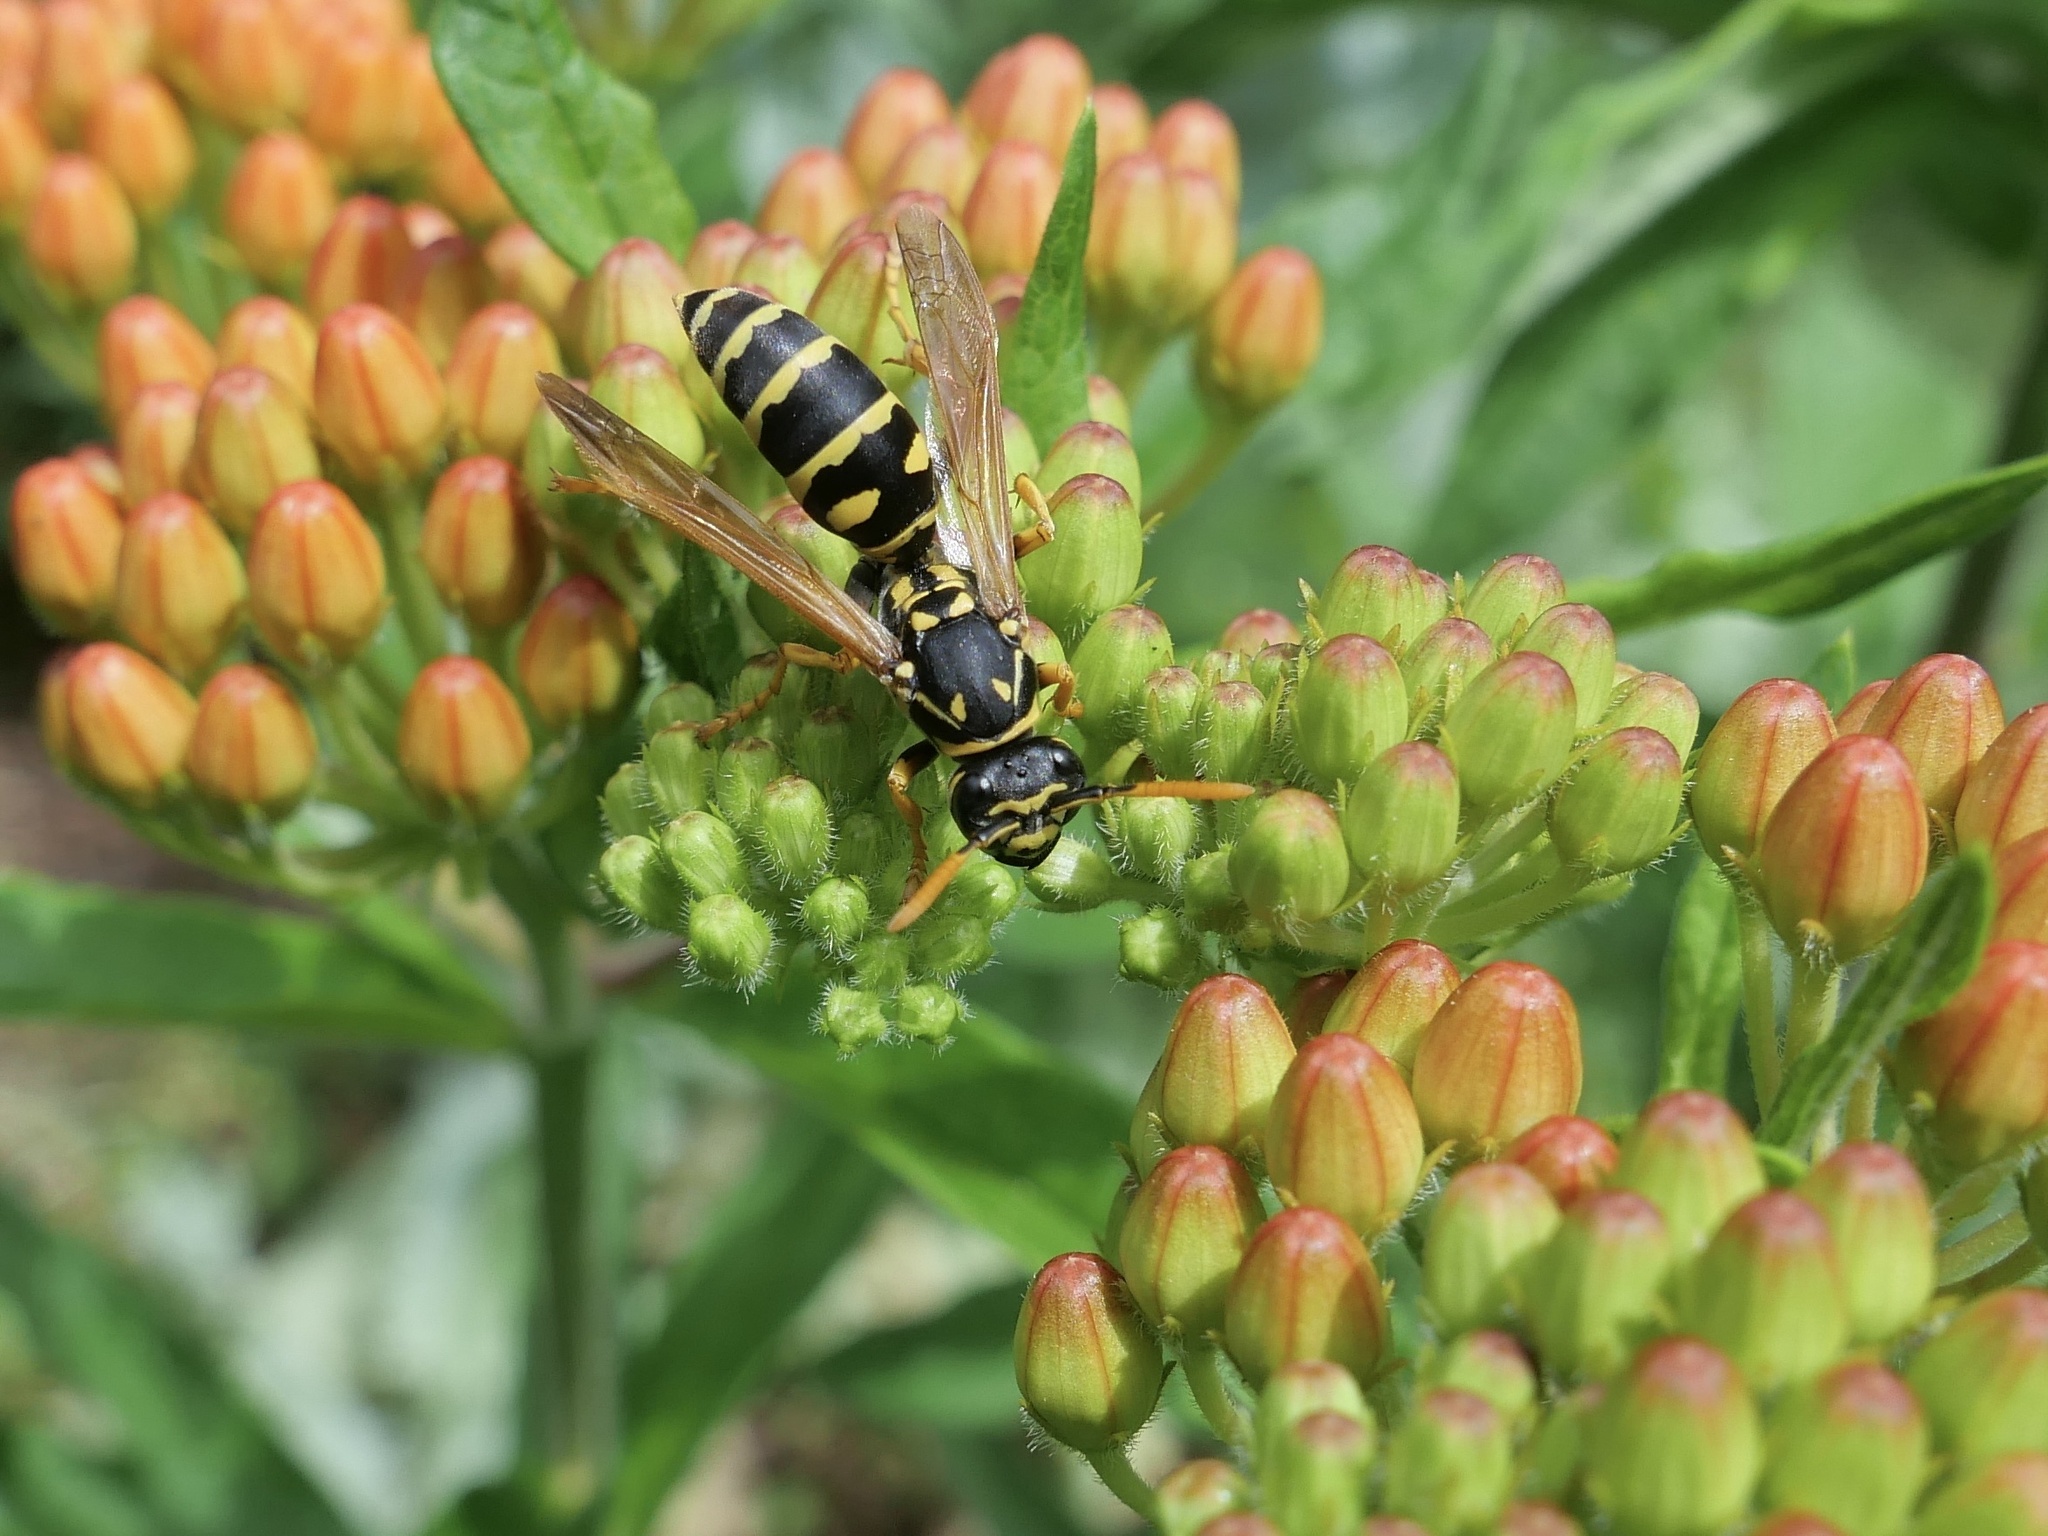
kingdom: Animalia
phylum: Arthropoda
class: Insecta
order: Hymenoptera
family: Eumenidae
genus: Polistes
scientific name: Polistes dominula
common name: Paper wasp
